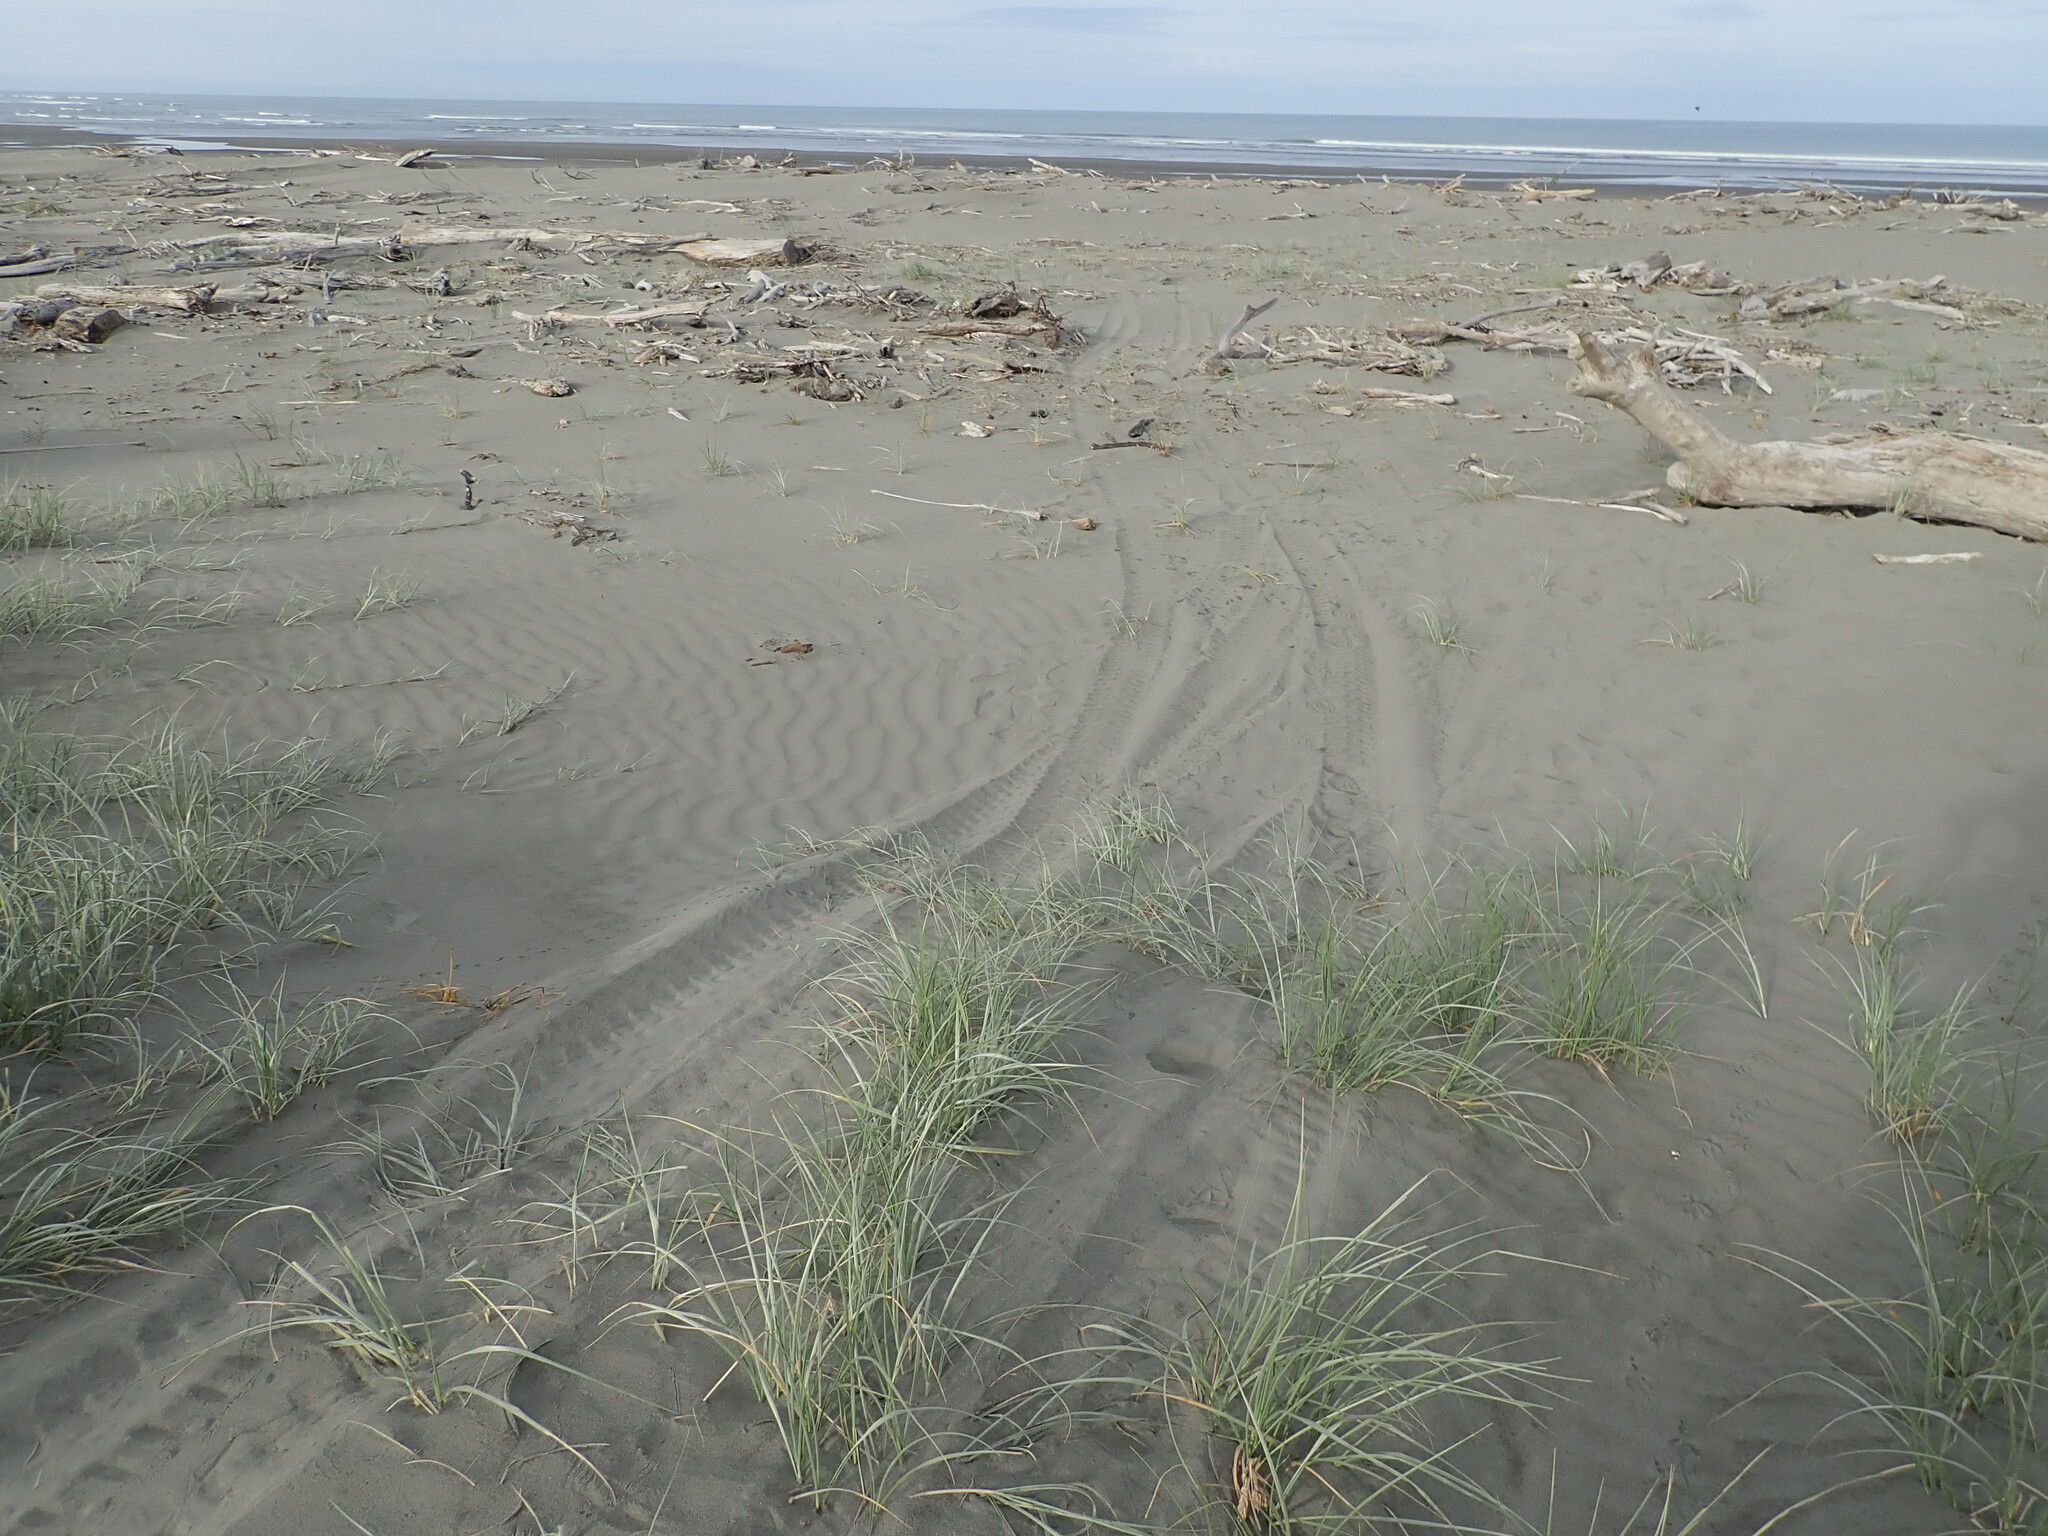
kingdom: Plantae
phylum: Tracheophyta
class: Liliopsida
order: Poales
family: Poaceae
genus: Spinifex
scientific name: Spinifex sericeus
